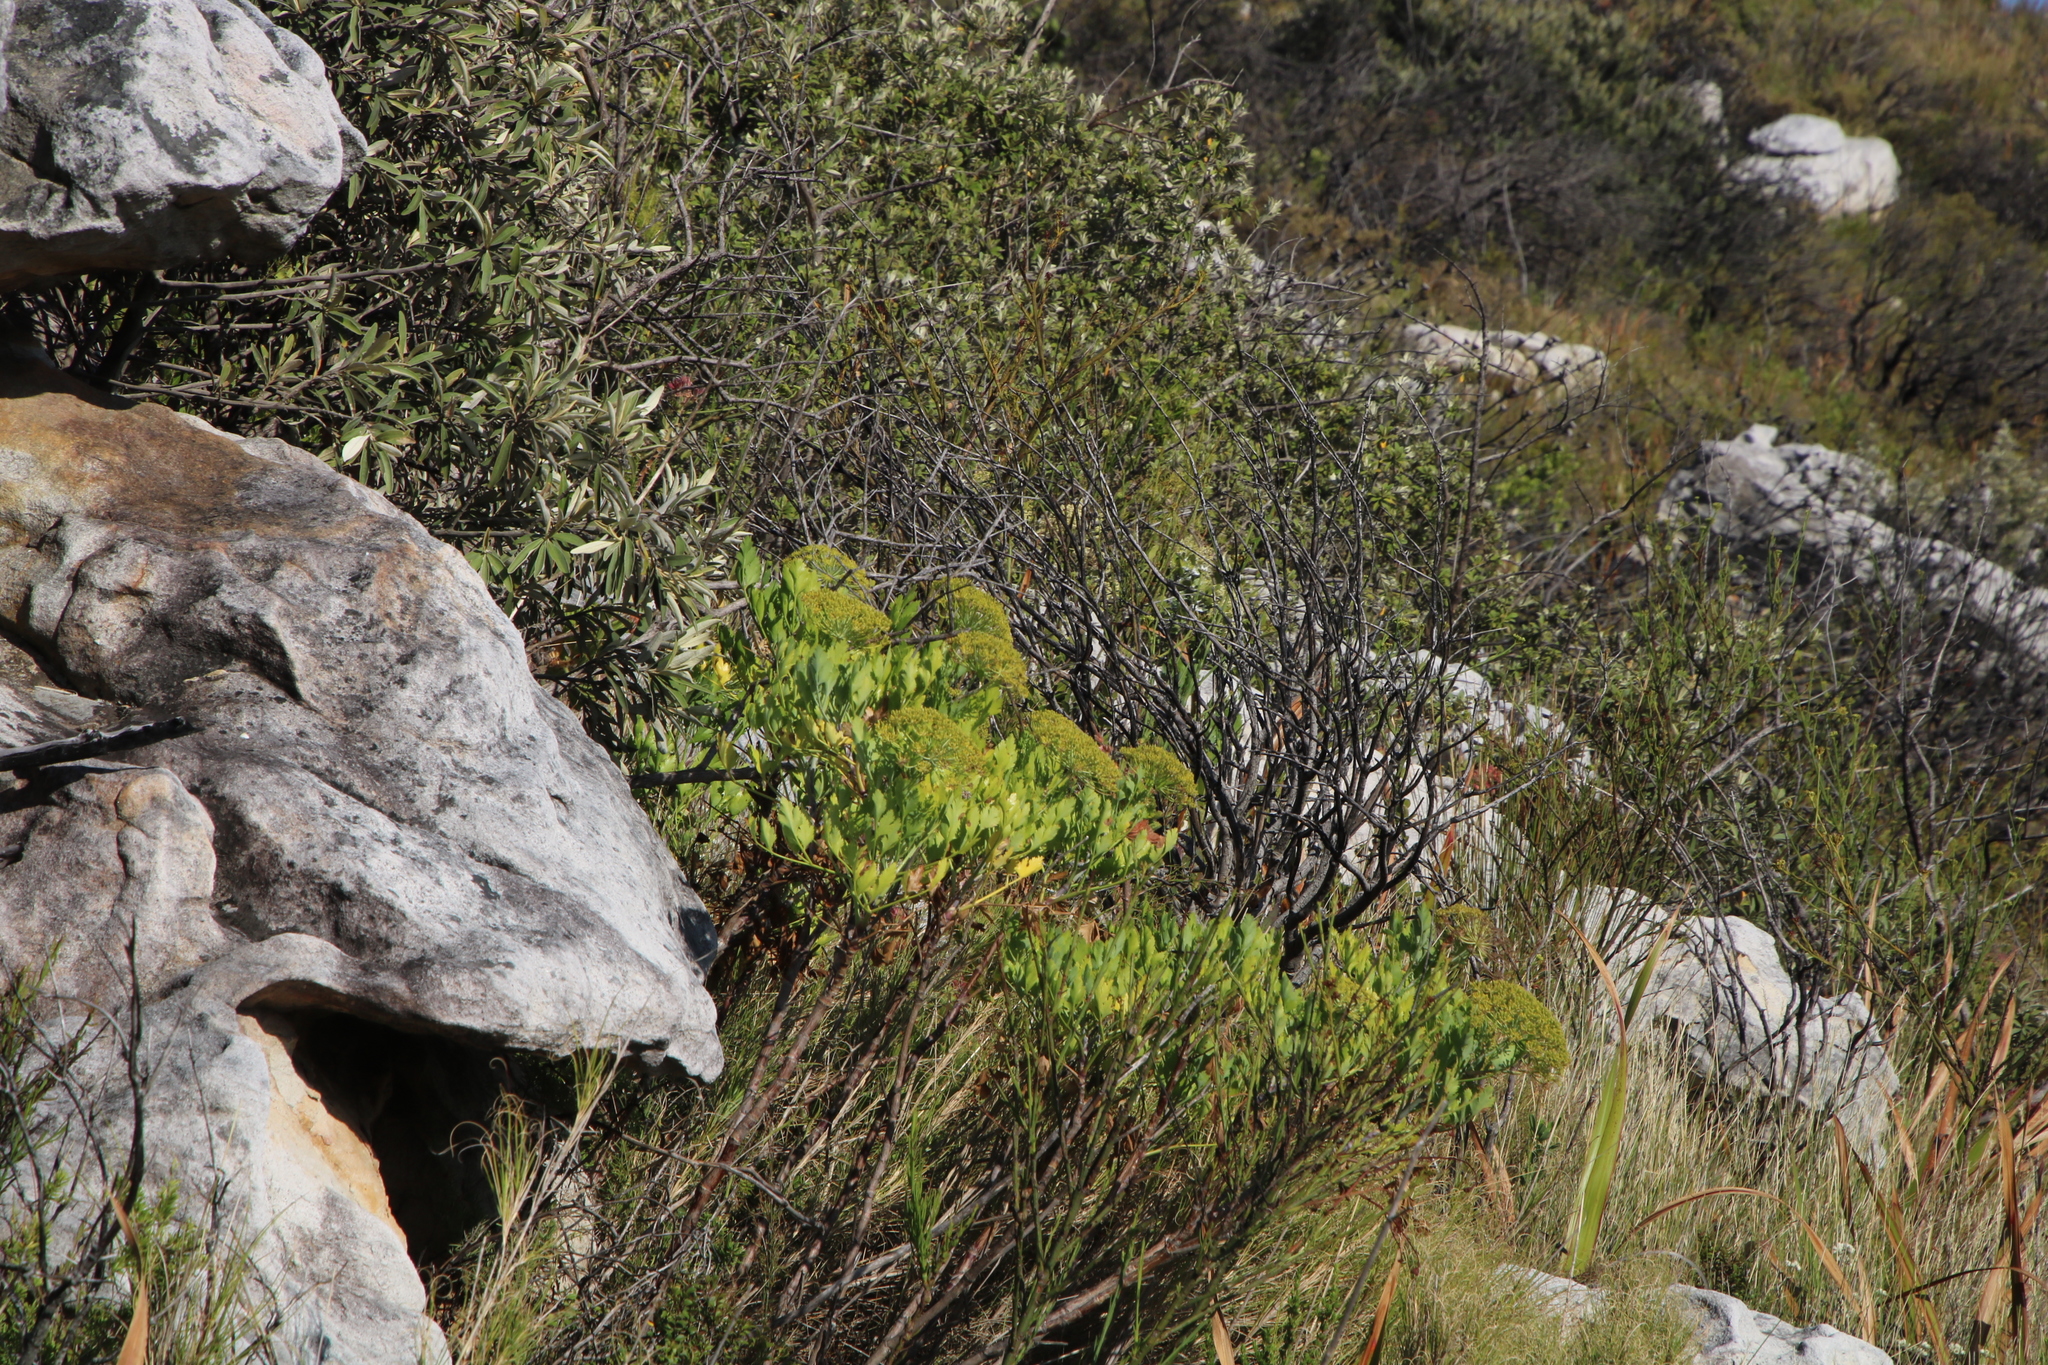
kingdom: Plantae
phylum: Tracheophyta
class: Magnoliopsida
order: Apiales
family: Apiaceae
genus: Notobubon
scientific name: Notobubon galbanum
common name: Blisterbush
